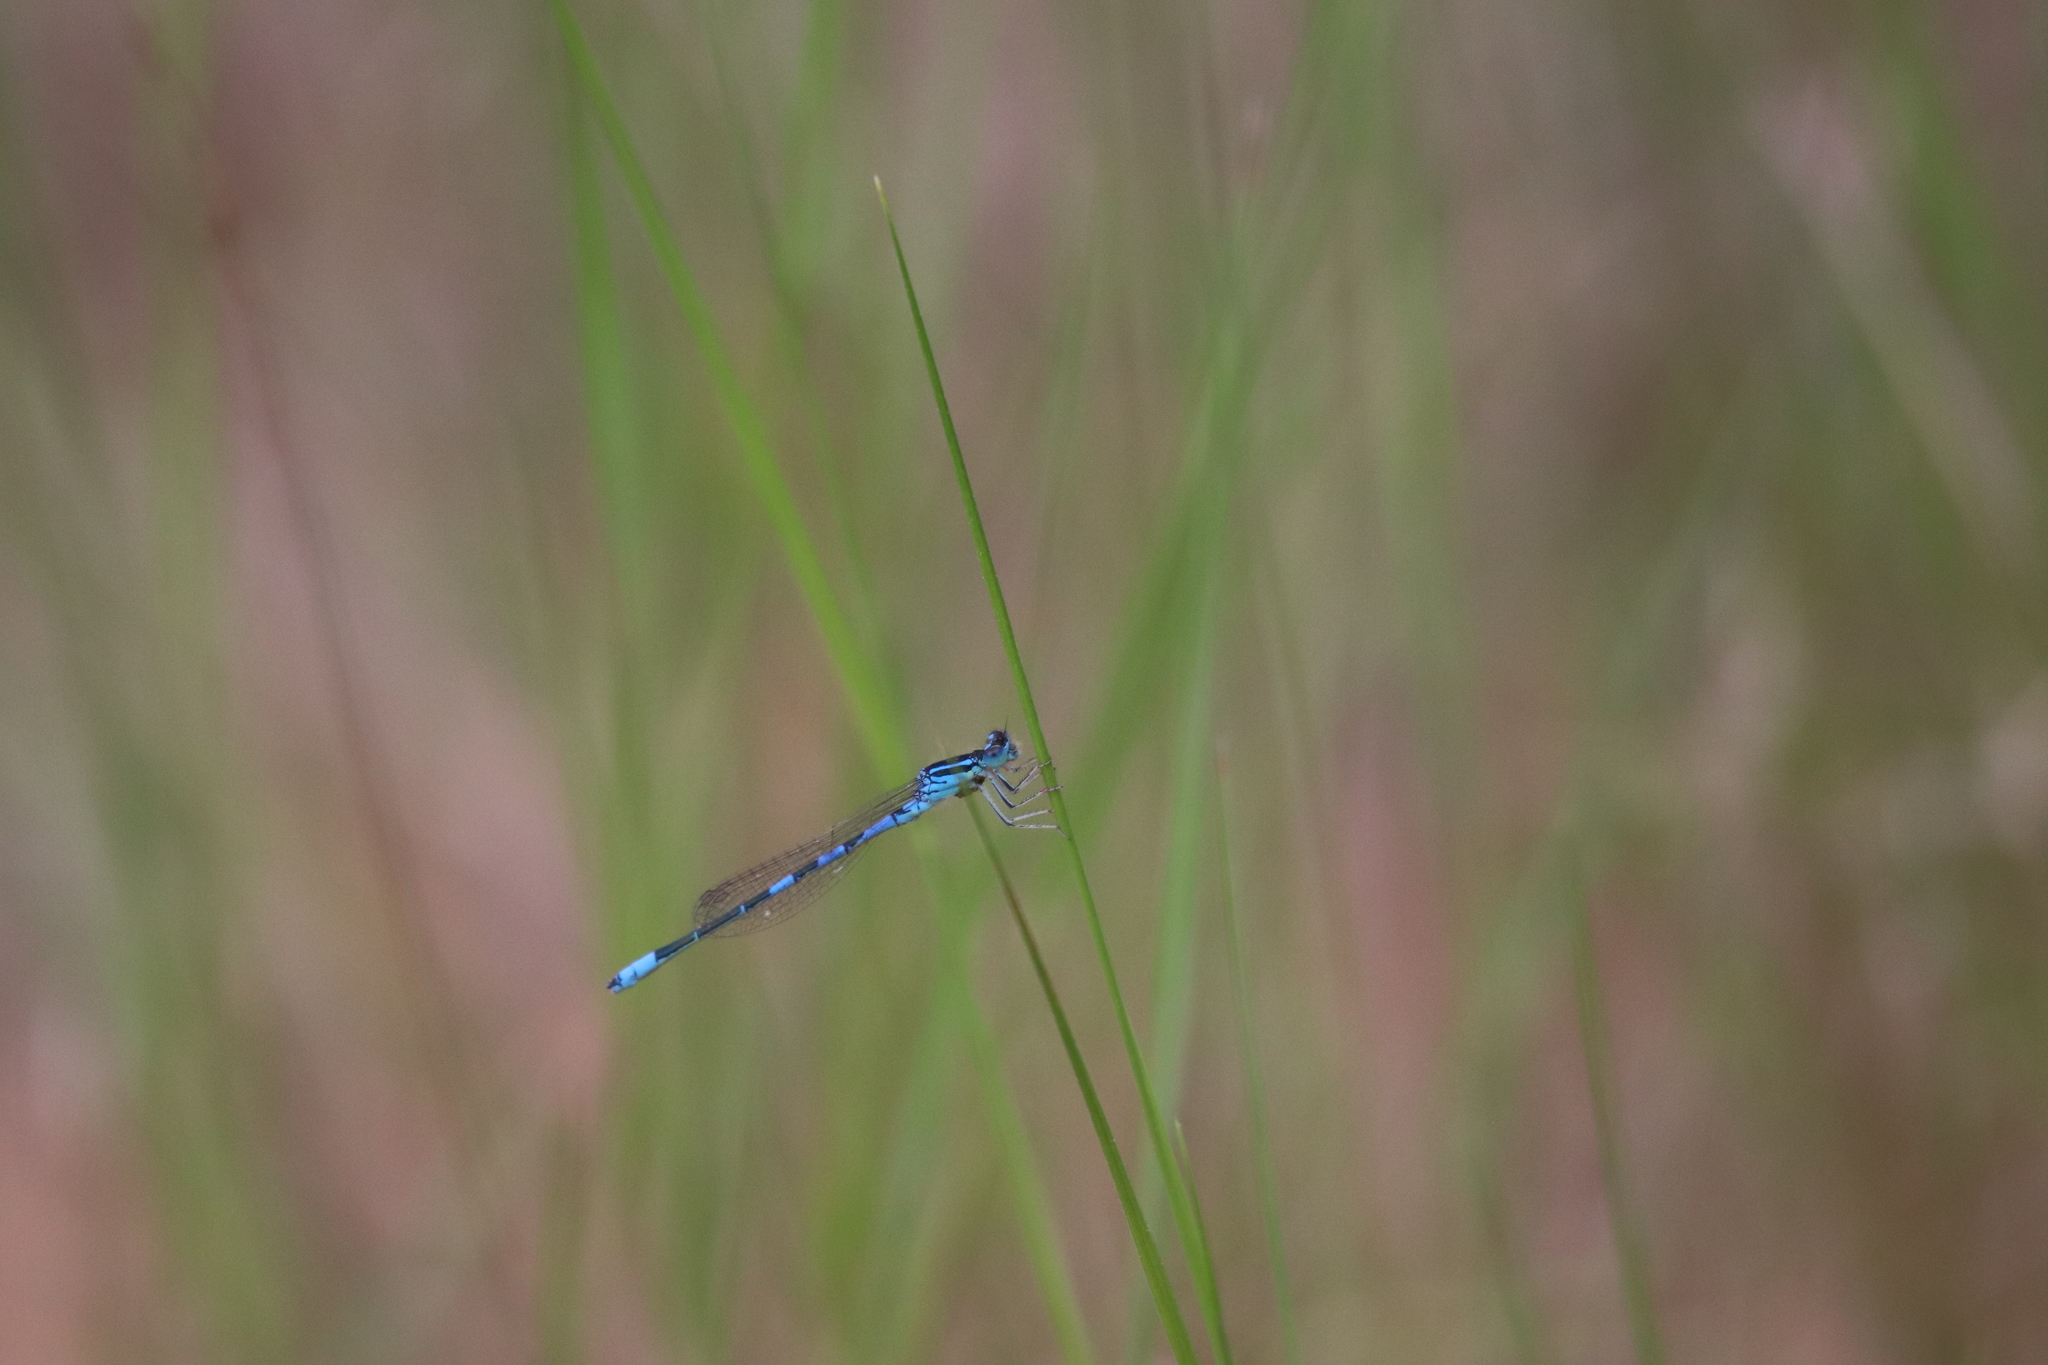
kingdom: Animalia
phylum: Arthropoda
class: Insecta
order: Odonata
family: Coenagrionidae
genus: Coenagrion
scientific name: Coenagrion scitulum
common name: Dainty bluet
